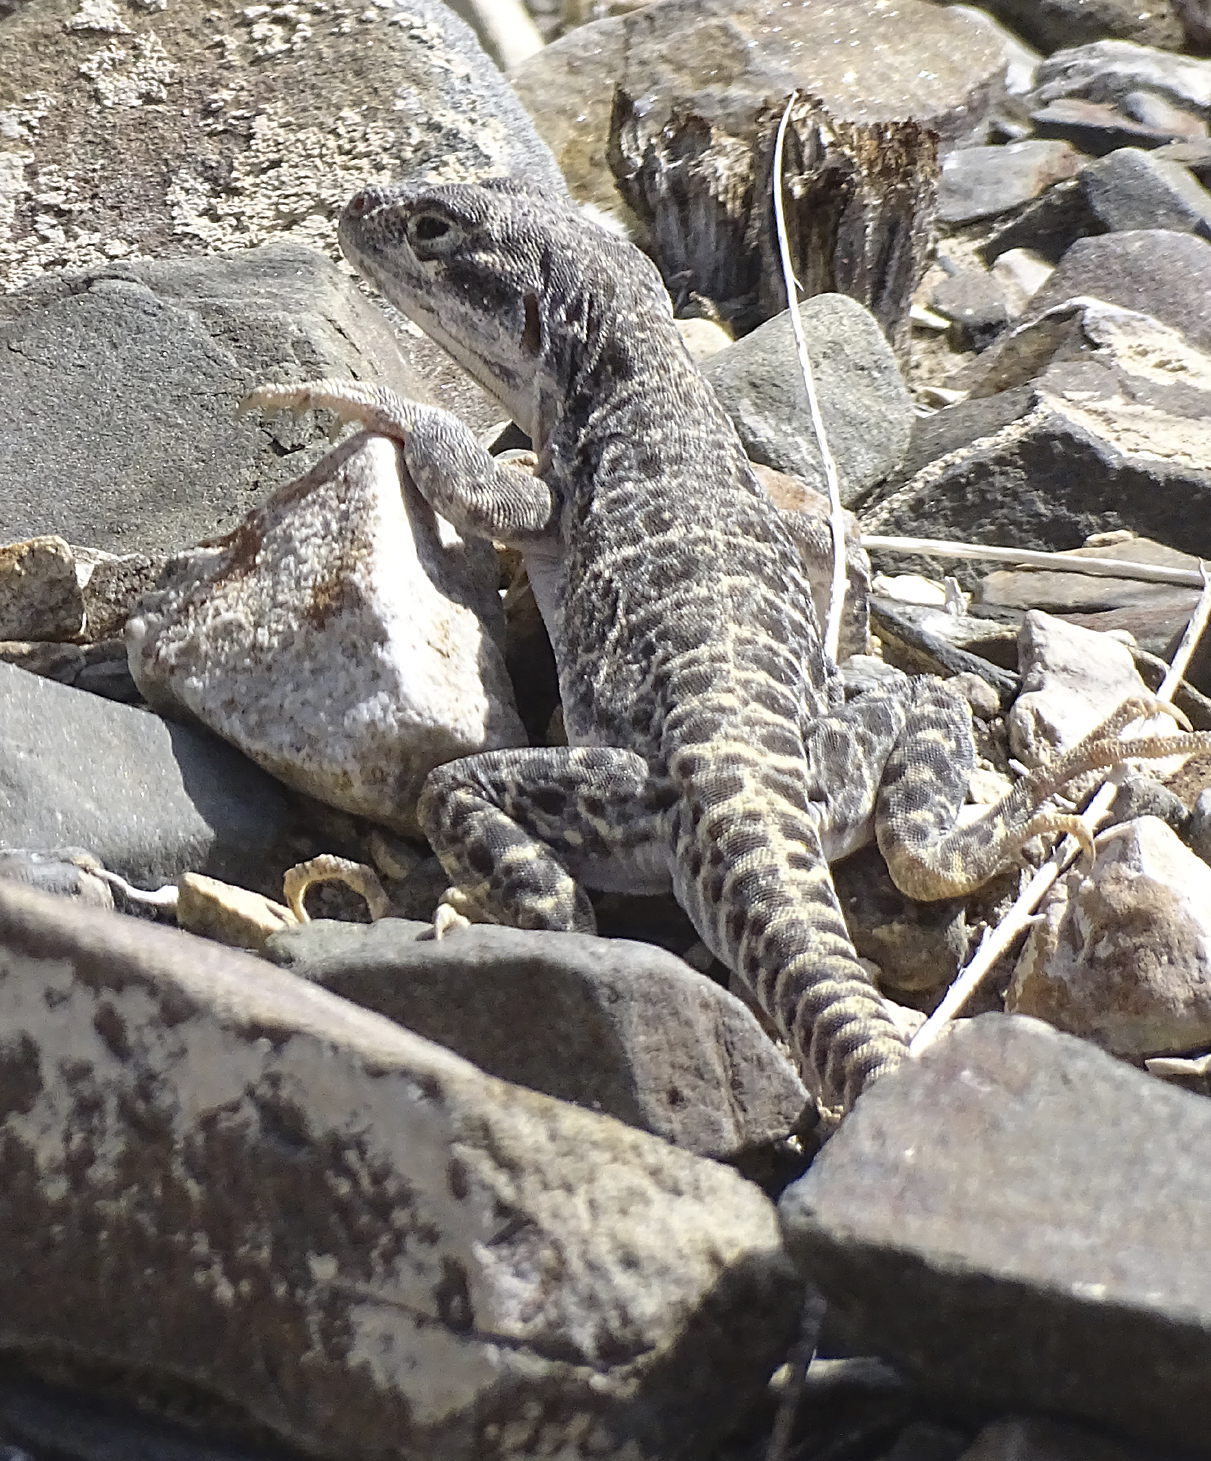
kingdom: Animalia
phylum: Chordata
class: Squamata
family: Crotaphytidae
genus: Gambelia
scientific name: Gambelia wislizenii
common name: Longnose leopard lizard
